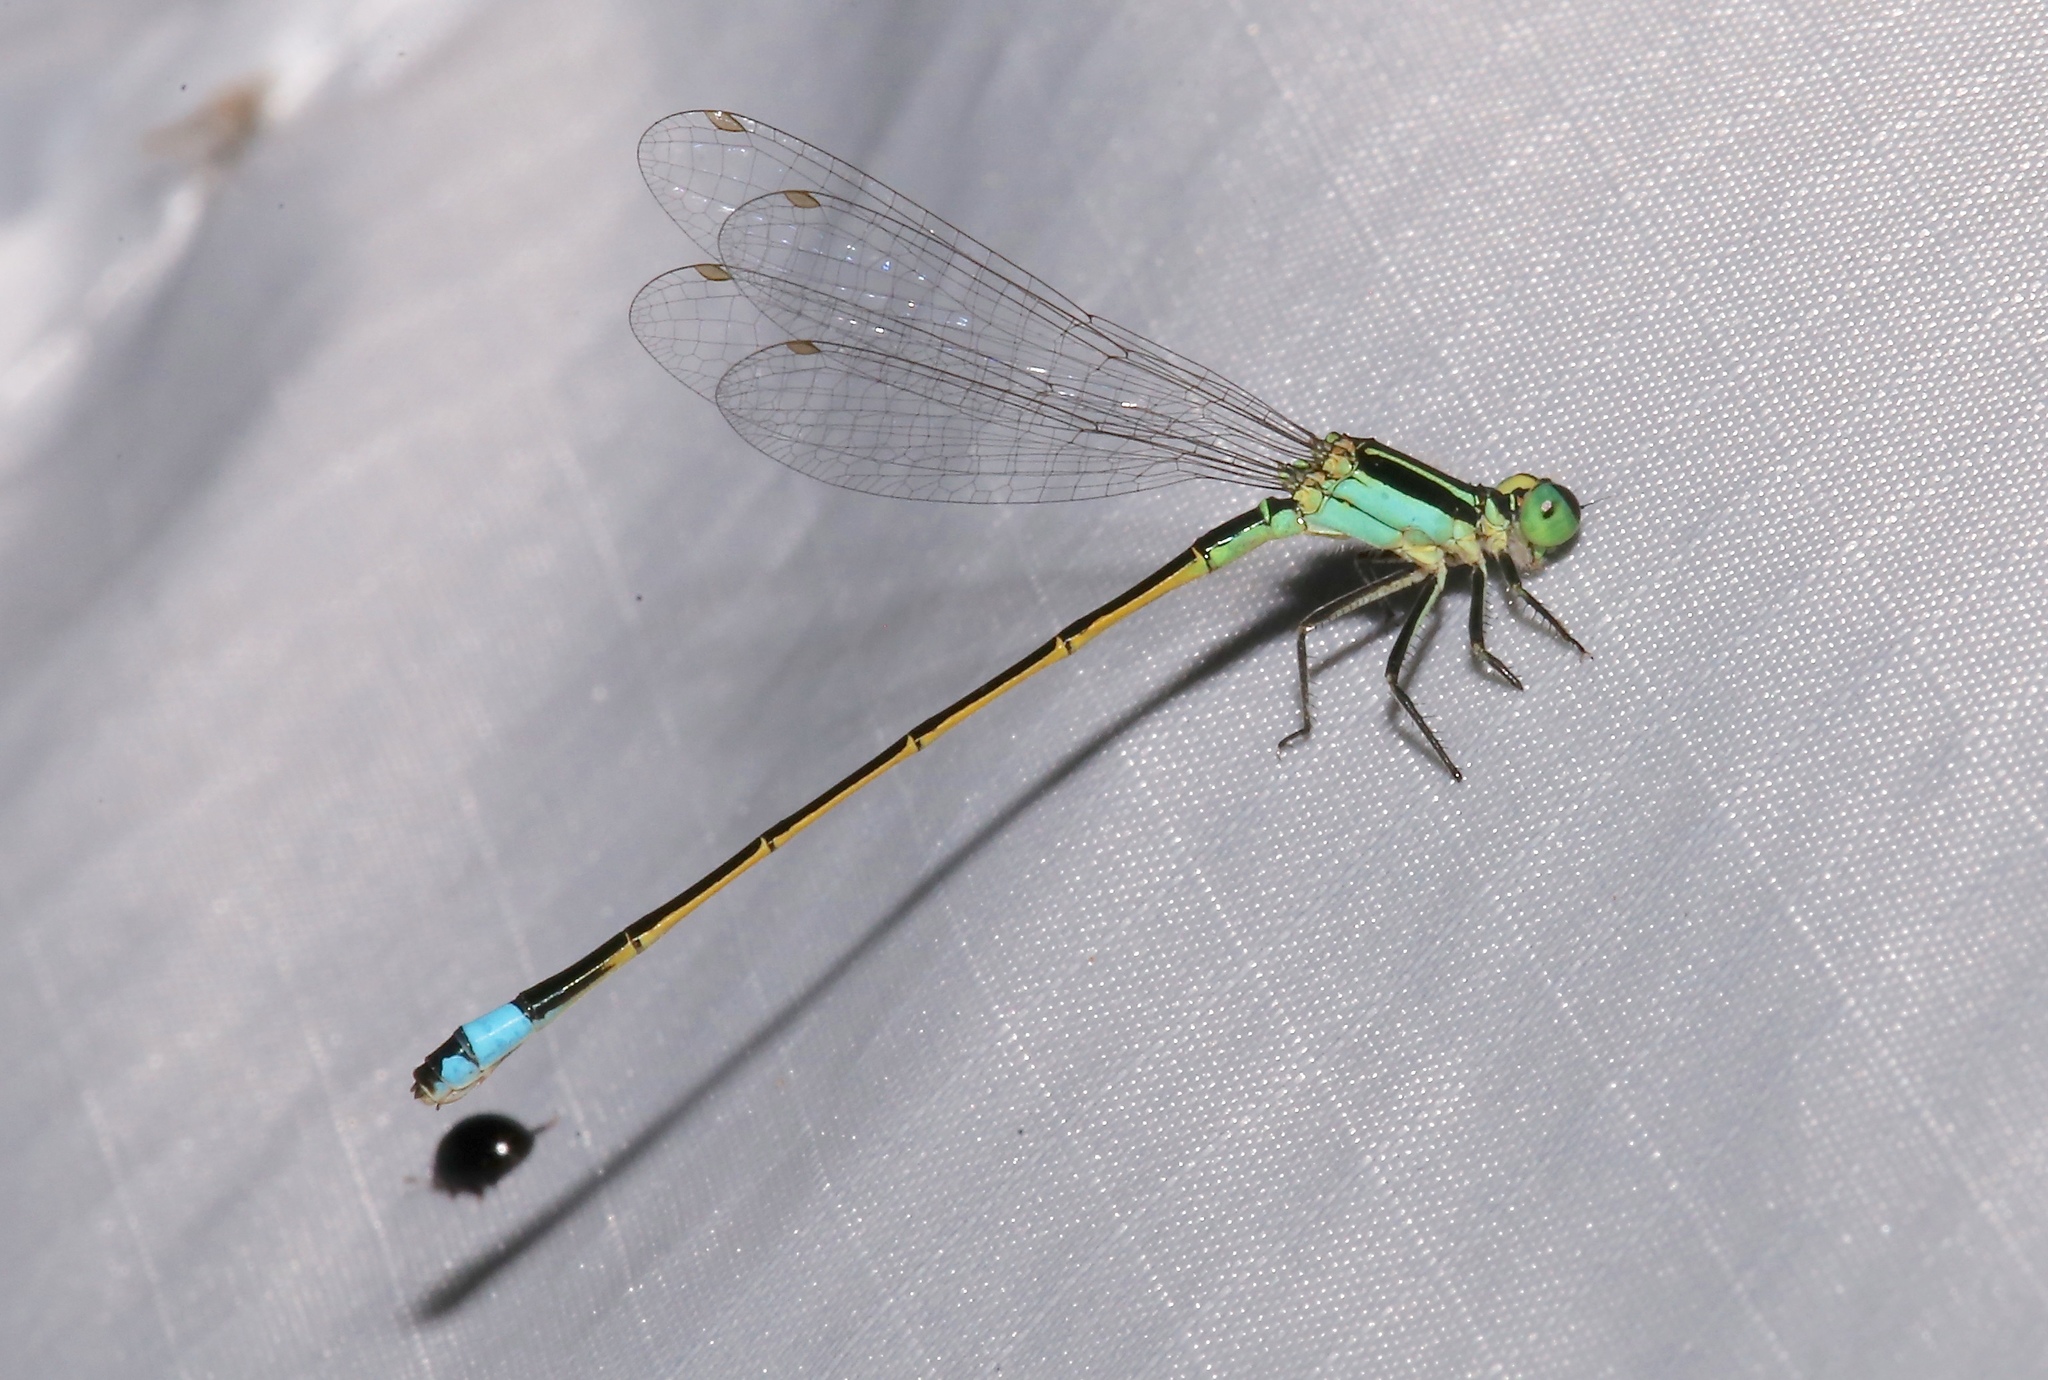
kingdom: Animalia
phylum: Arthropoda
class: Insecta
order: Odonata
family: Coenagrionidae
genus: Ischnura
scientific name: Ischnura ramburii
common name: Rambur's forktail
